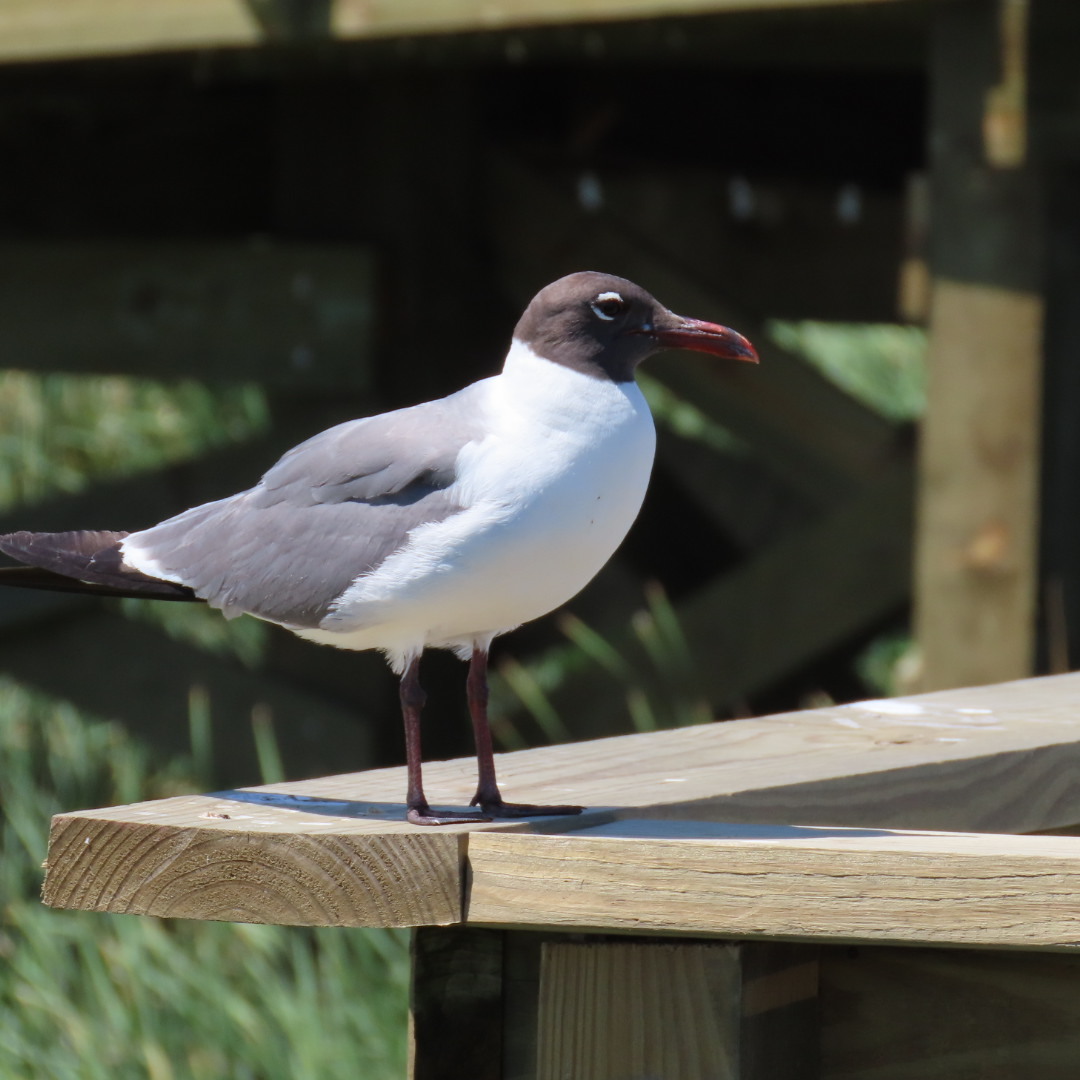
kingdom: Animalia
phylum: Chordata
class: Aves
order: Charadriiformes
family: Laridae
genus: Leucophaeus
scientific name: Leucophaeus atricilla
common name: Laughing gull
